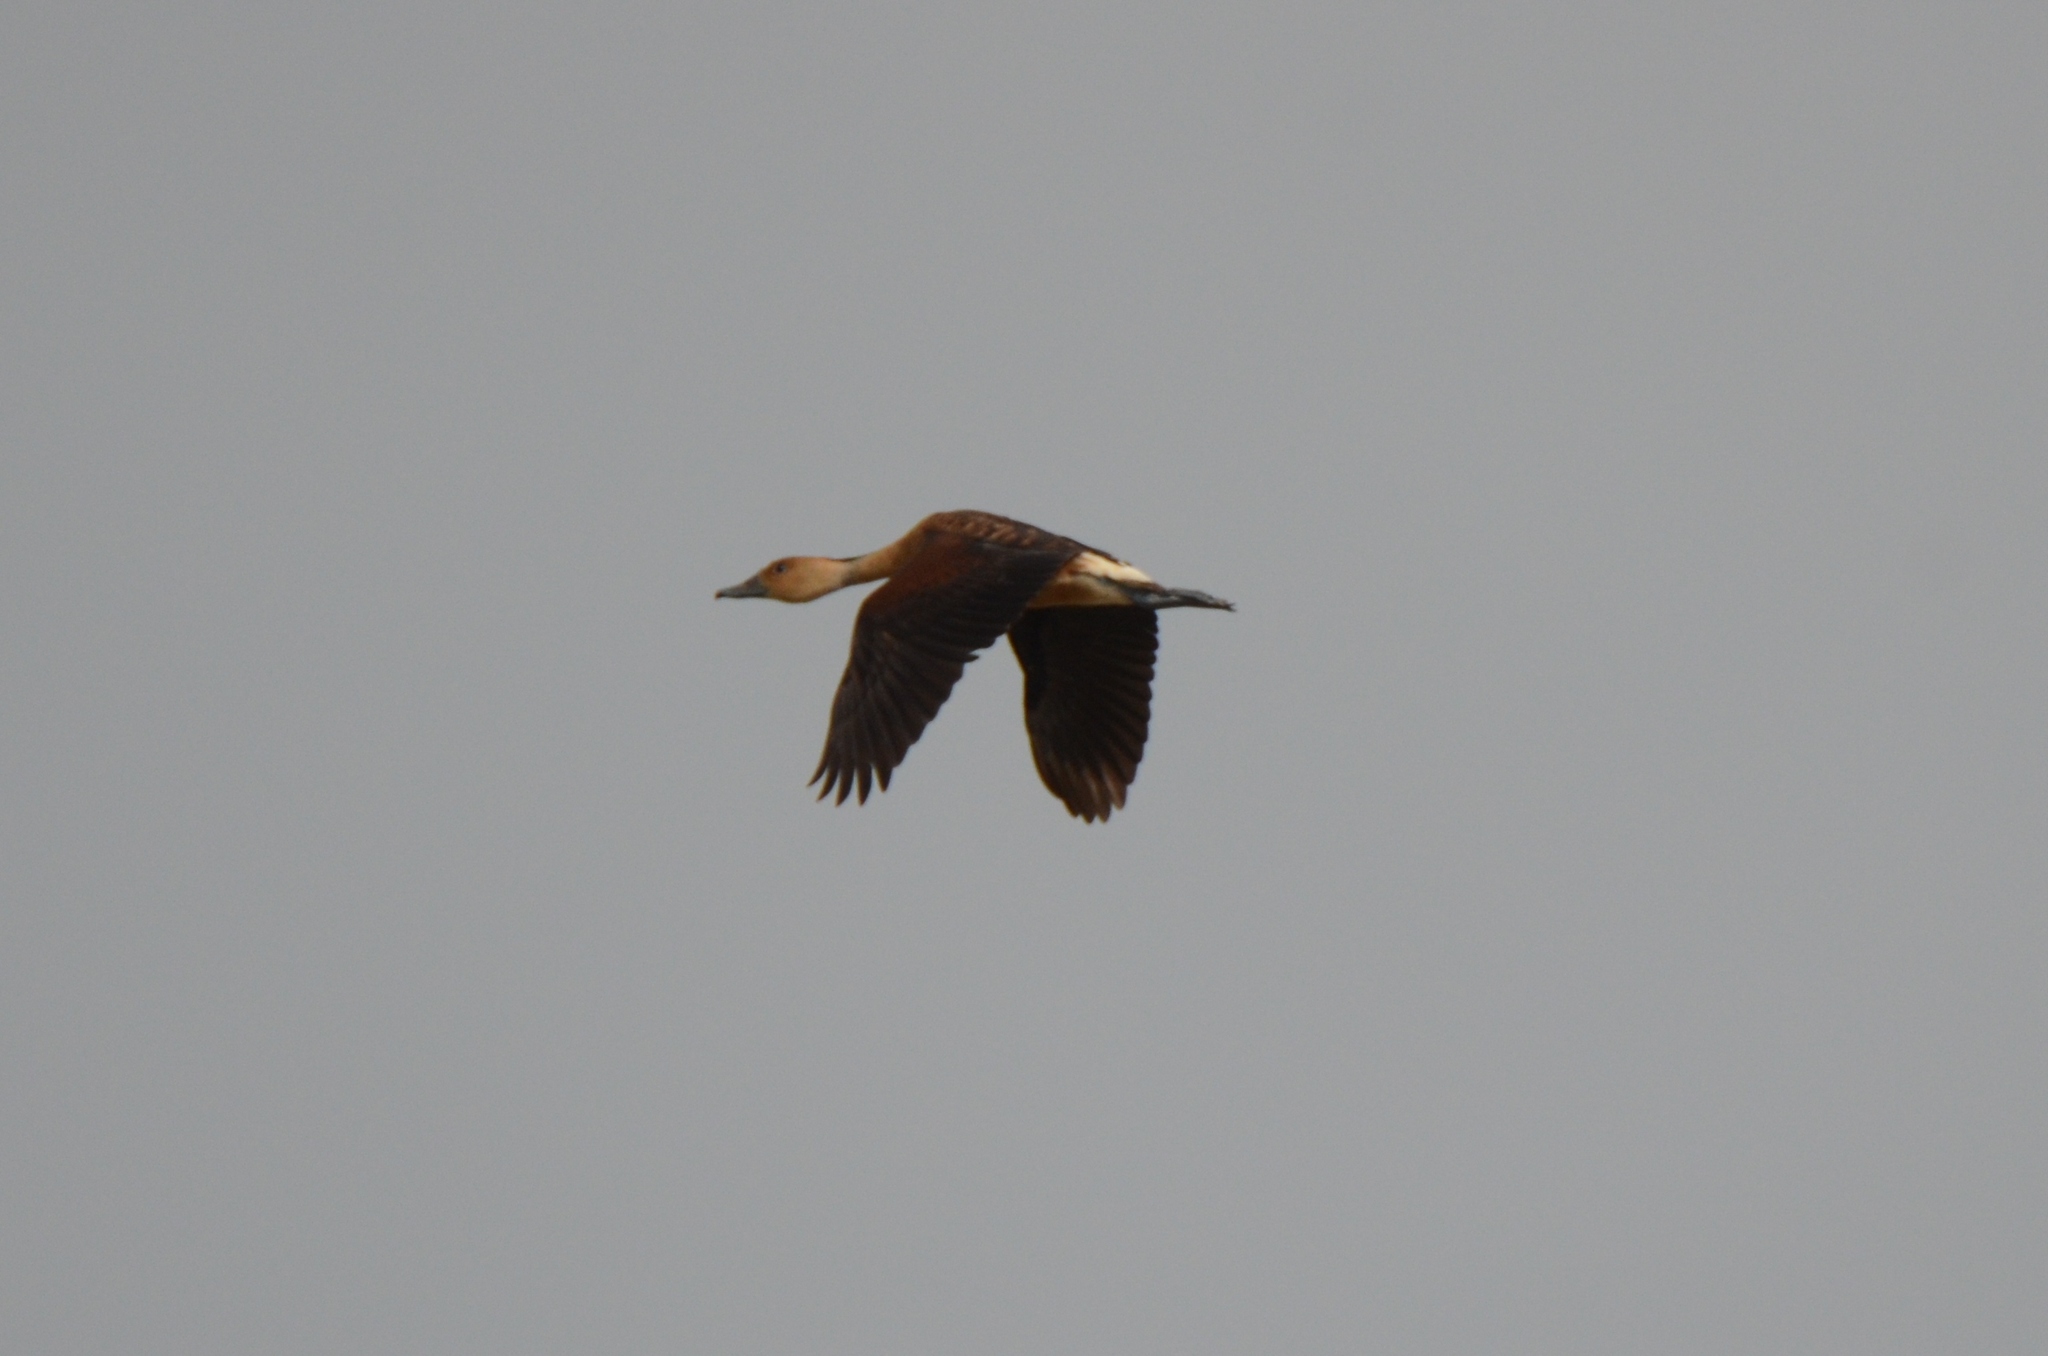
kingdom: Animalia
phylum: Chordata
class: Aves
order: Anseriformes
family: Anatidae
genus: Dendrocygna
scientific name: Dendrocygna bicolor
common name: Fulvous whistling duck
